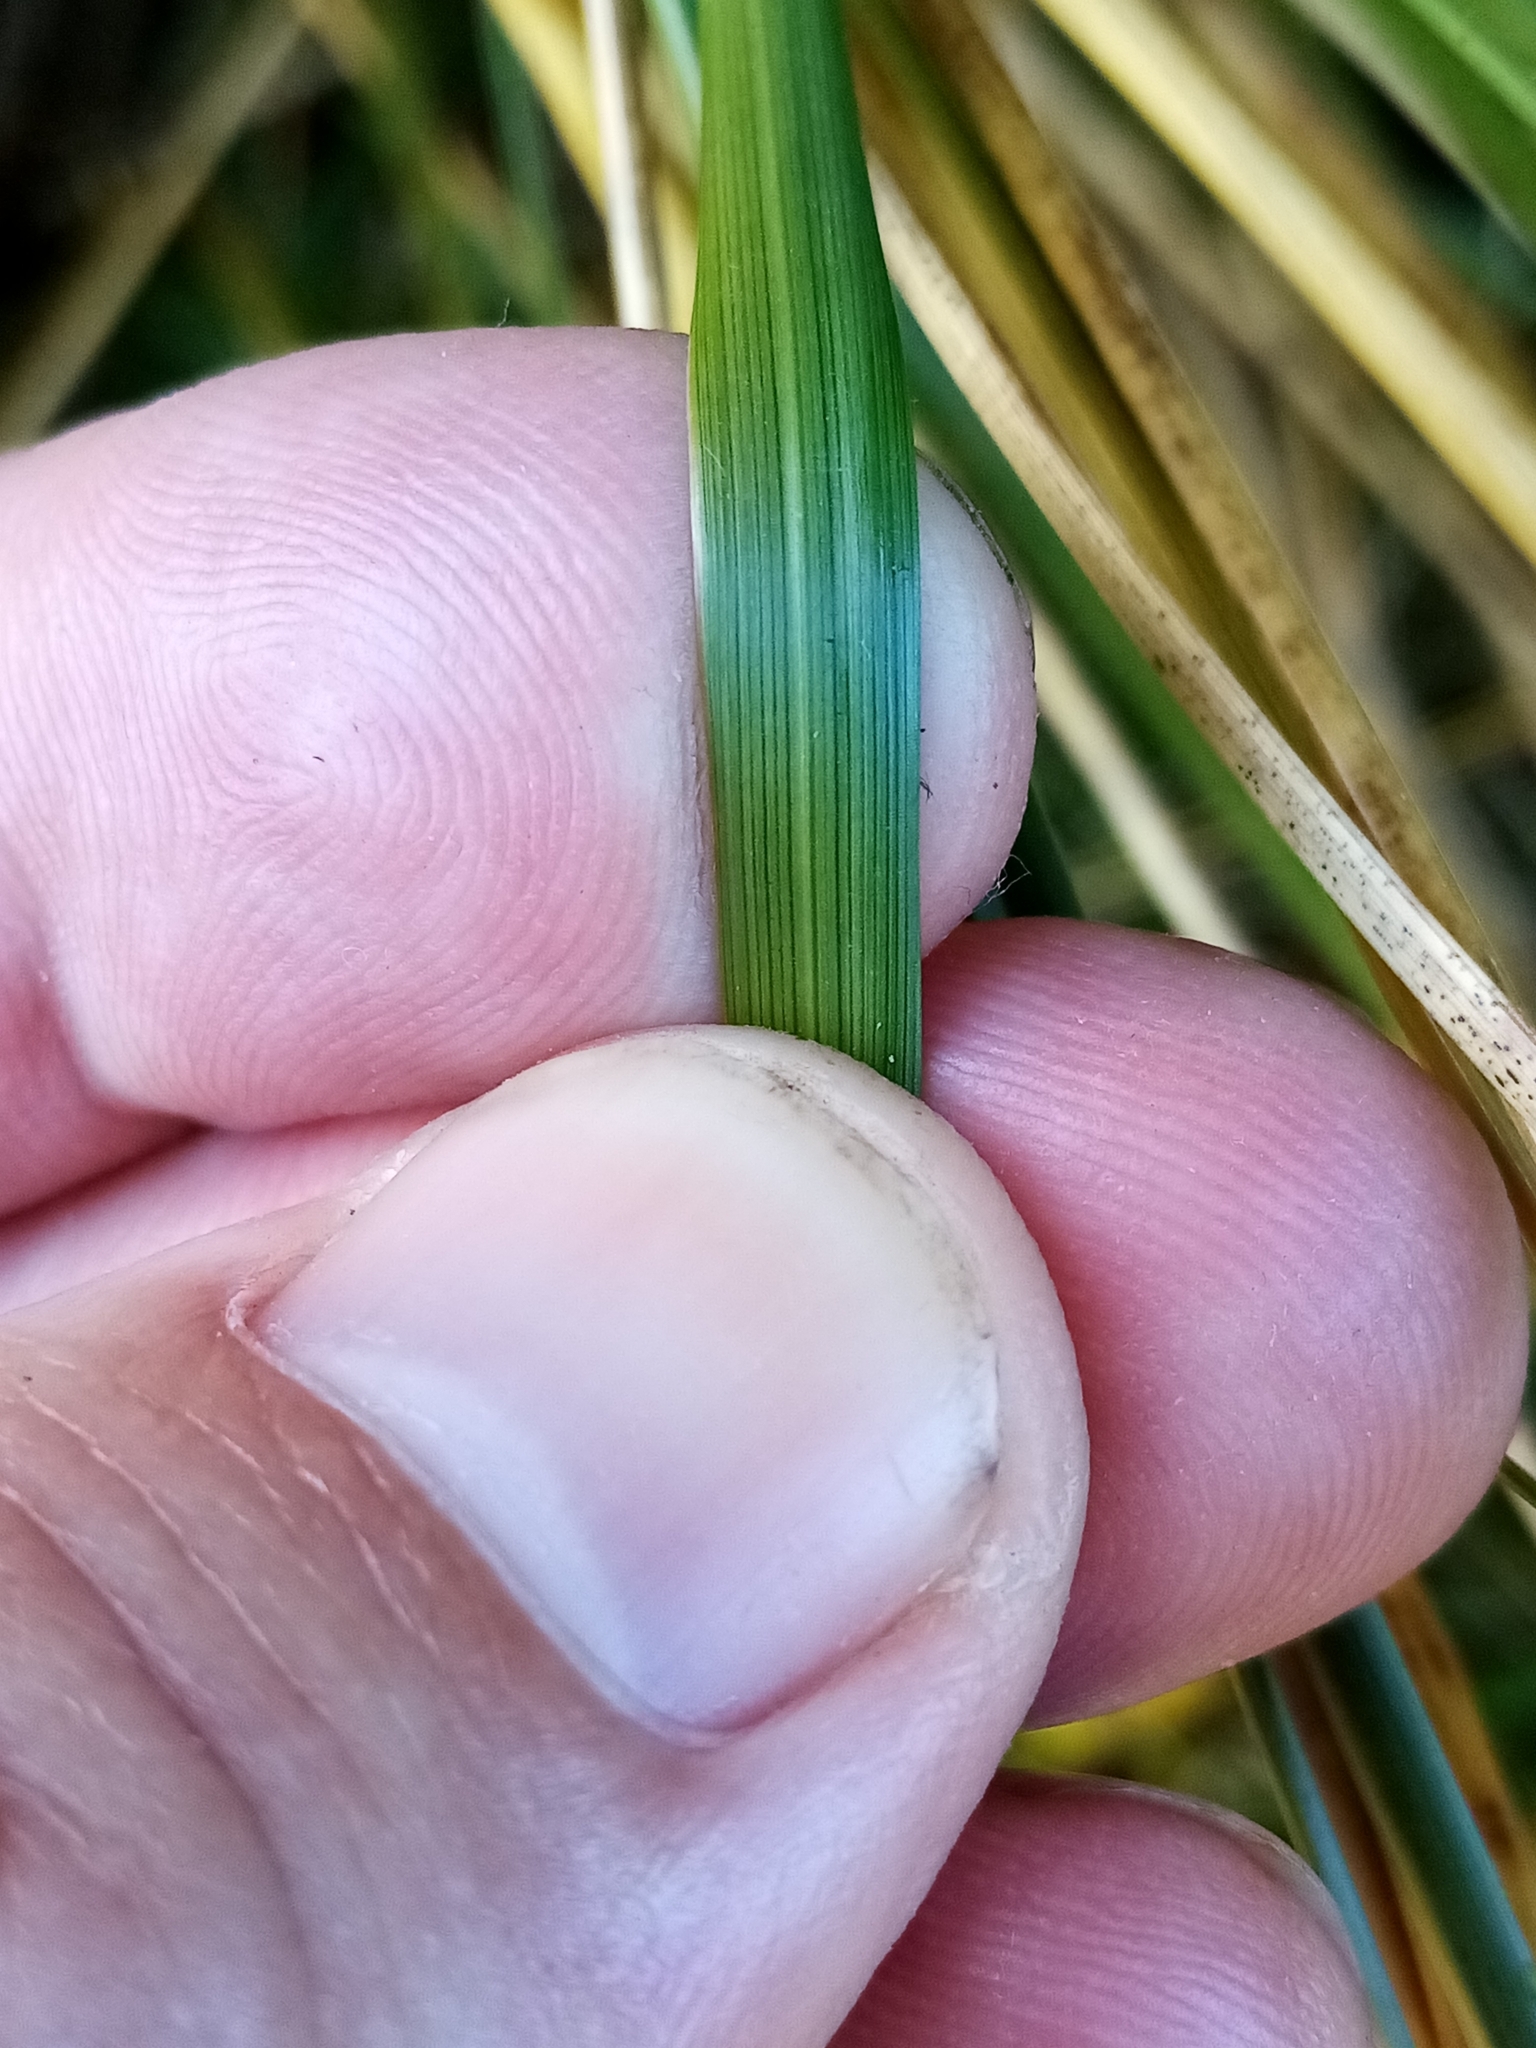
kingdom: Plantae
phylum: Tracheophyta
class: Liliopsida
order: Poales
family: Poaceae
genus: Chionochloa
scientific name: Chionochloa rigida
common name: Narrow leaved snow tussock
